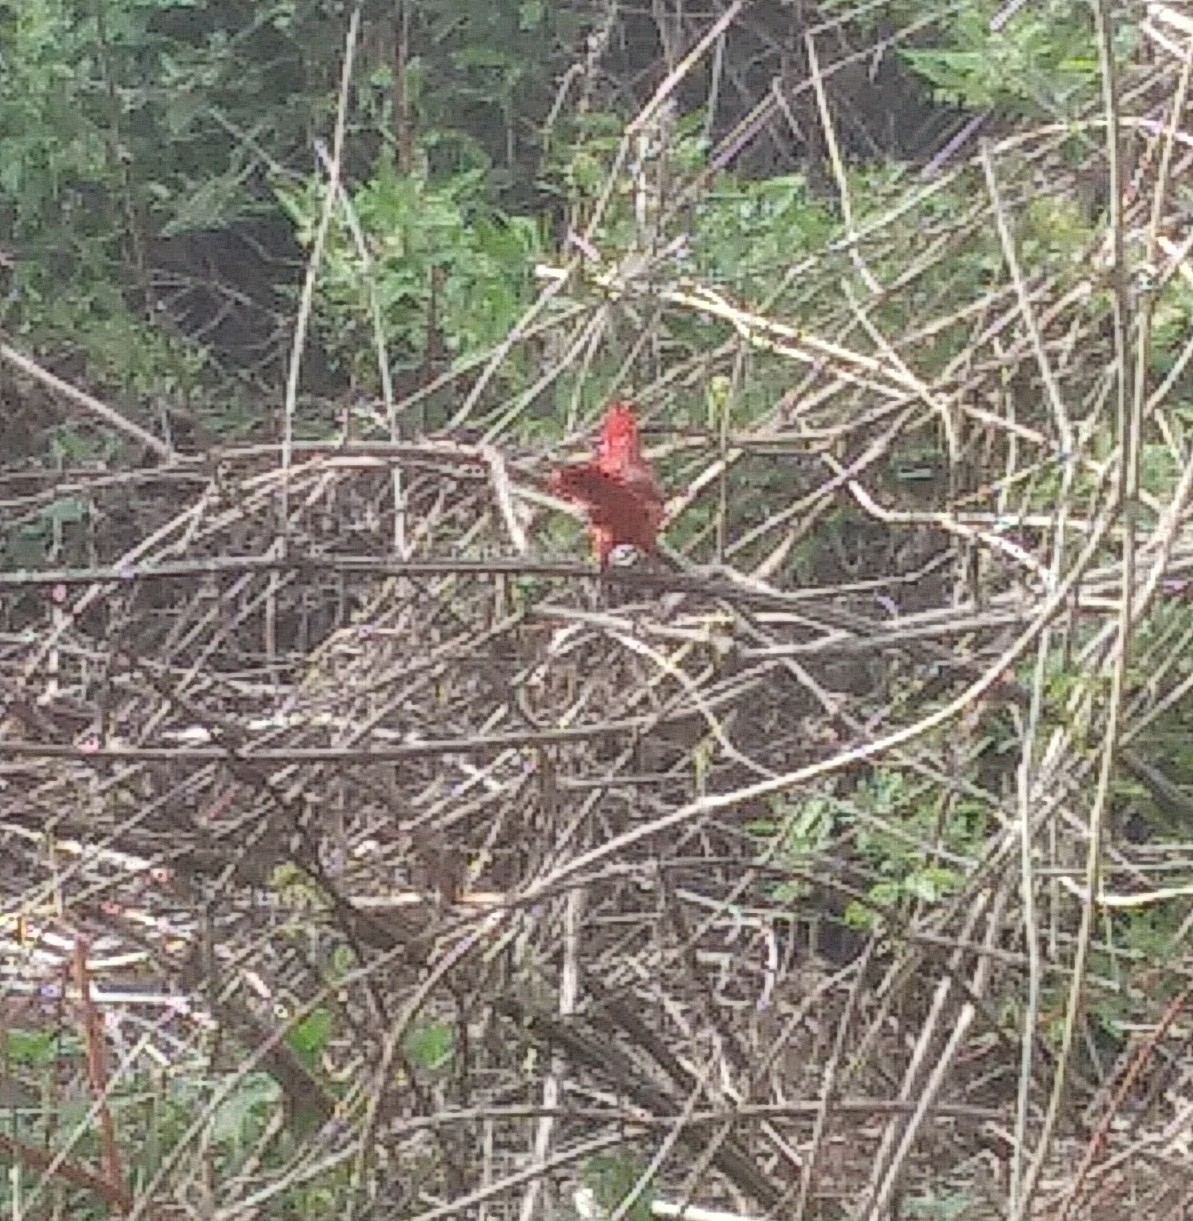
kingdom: Animalia
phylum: Chordata
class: Aves
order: Passeriformes
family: Cardinalidae
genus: Cardinalis
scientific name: Cardinalis cardinalis
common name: Northern cardinal
